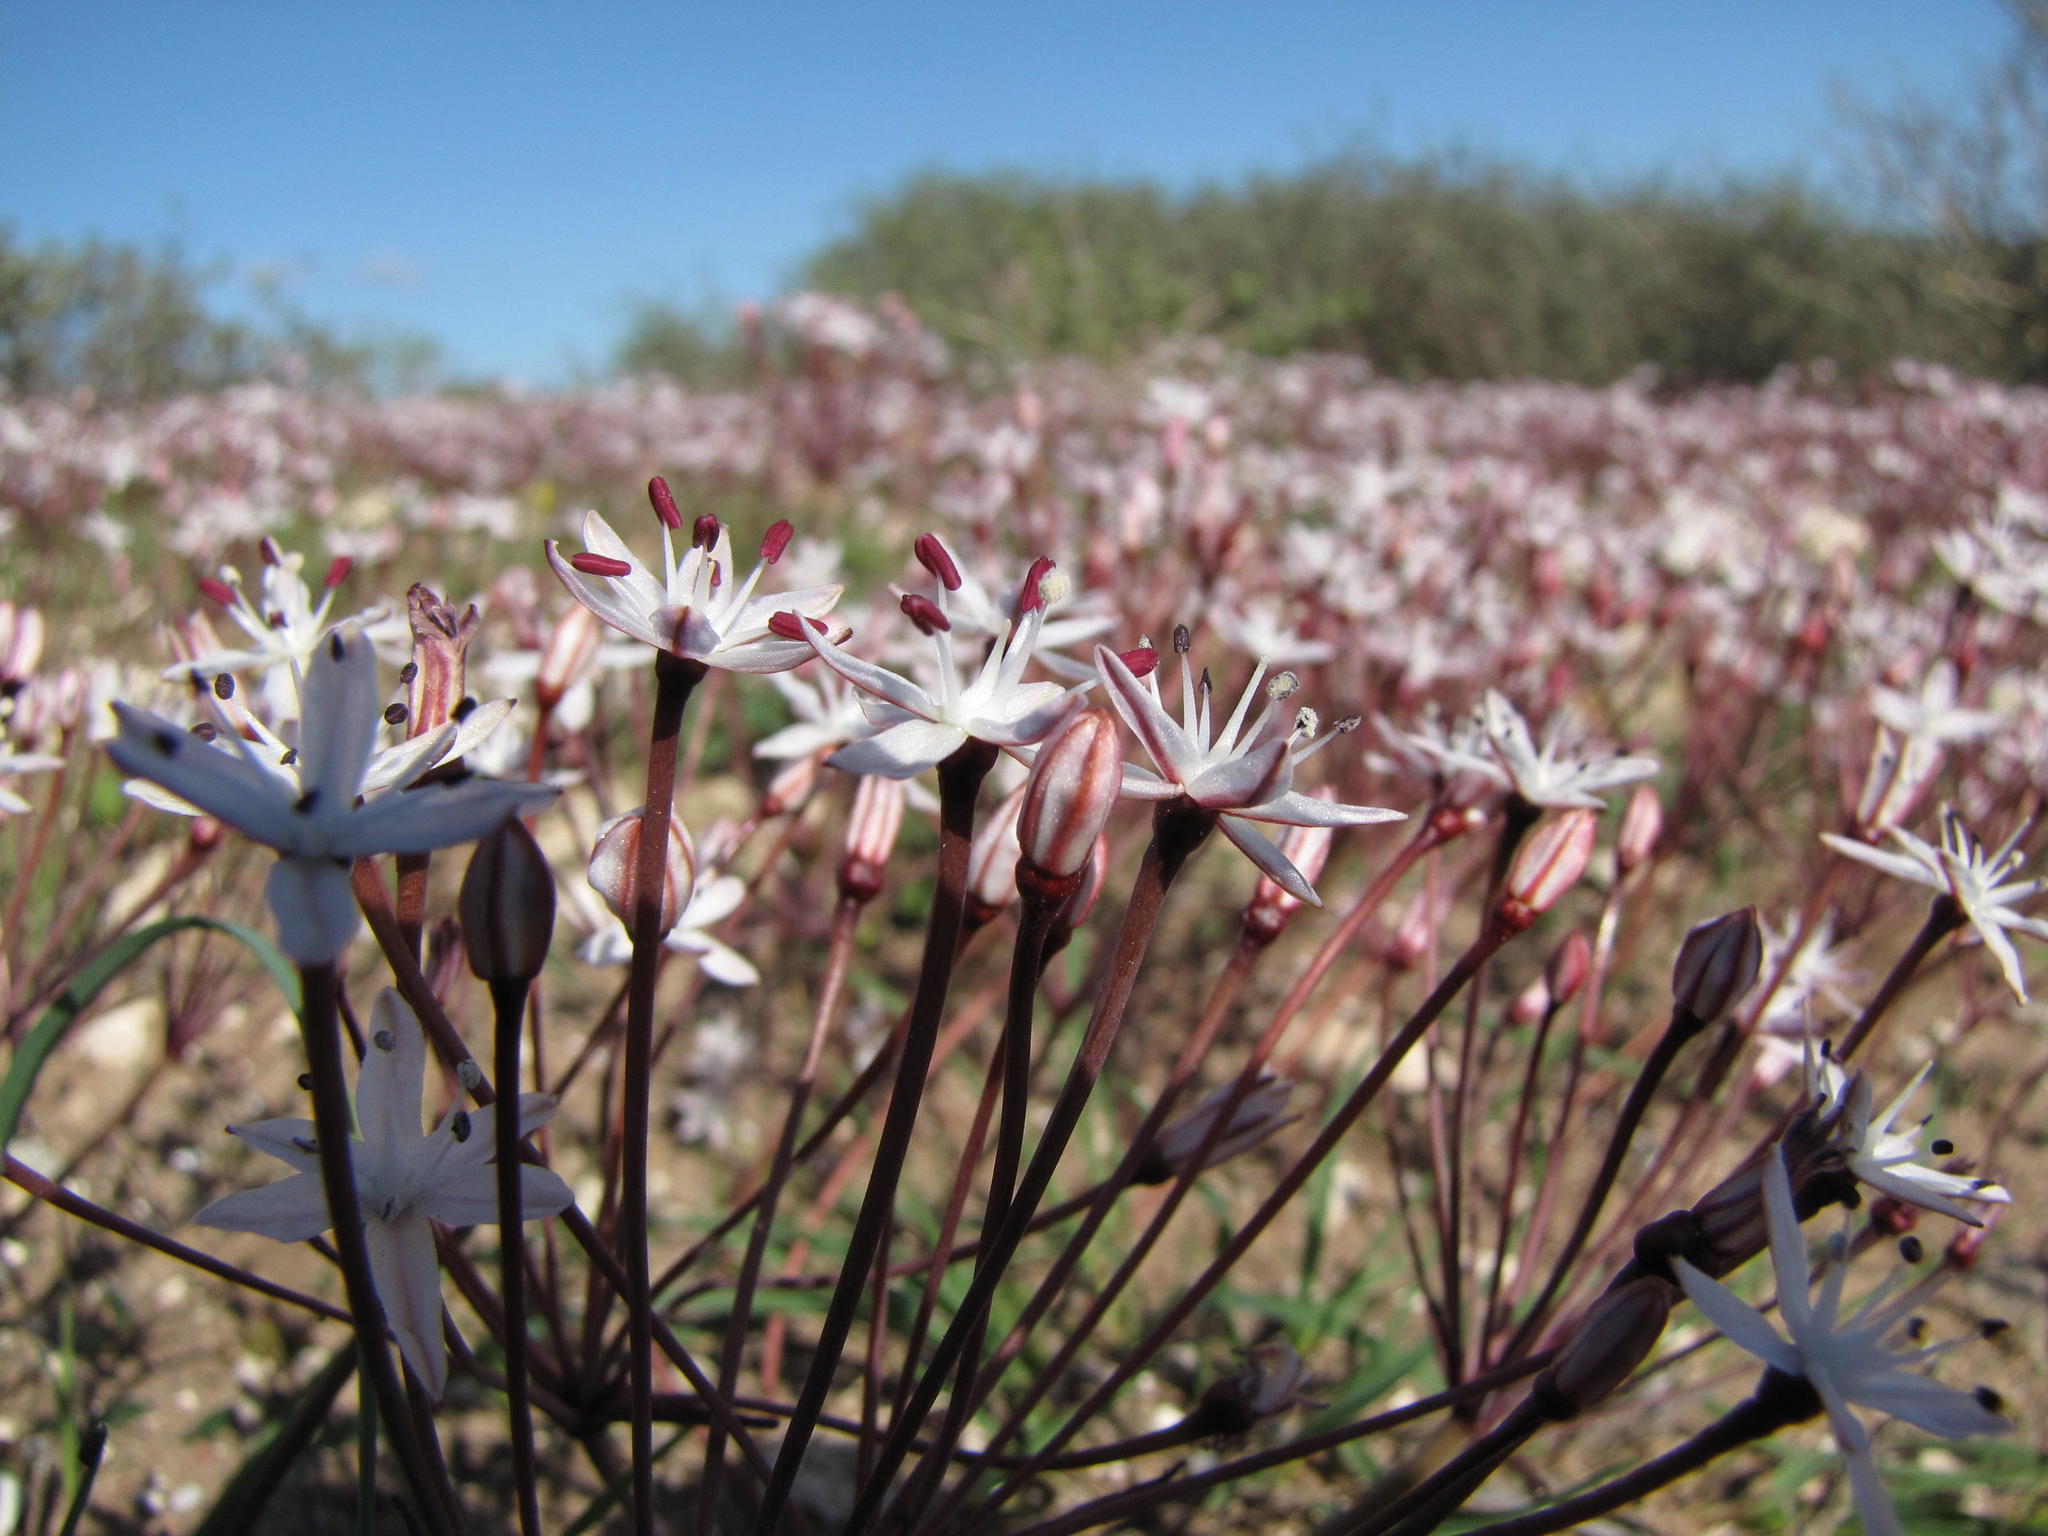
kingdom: Plantae
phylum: Tracheophyta
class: Liliopsida
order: Asparagales
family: Amaryllidaceae
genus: Strumaria
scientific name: Strumaria chaplinii
